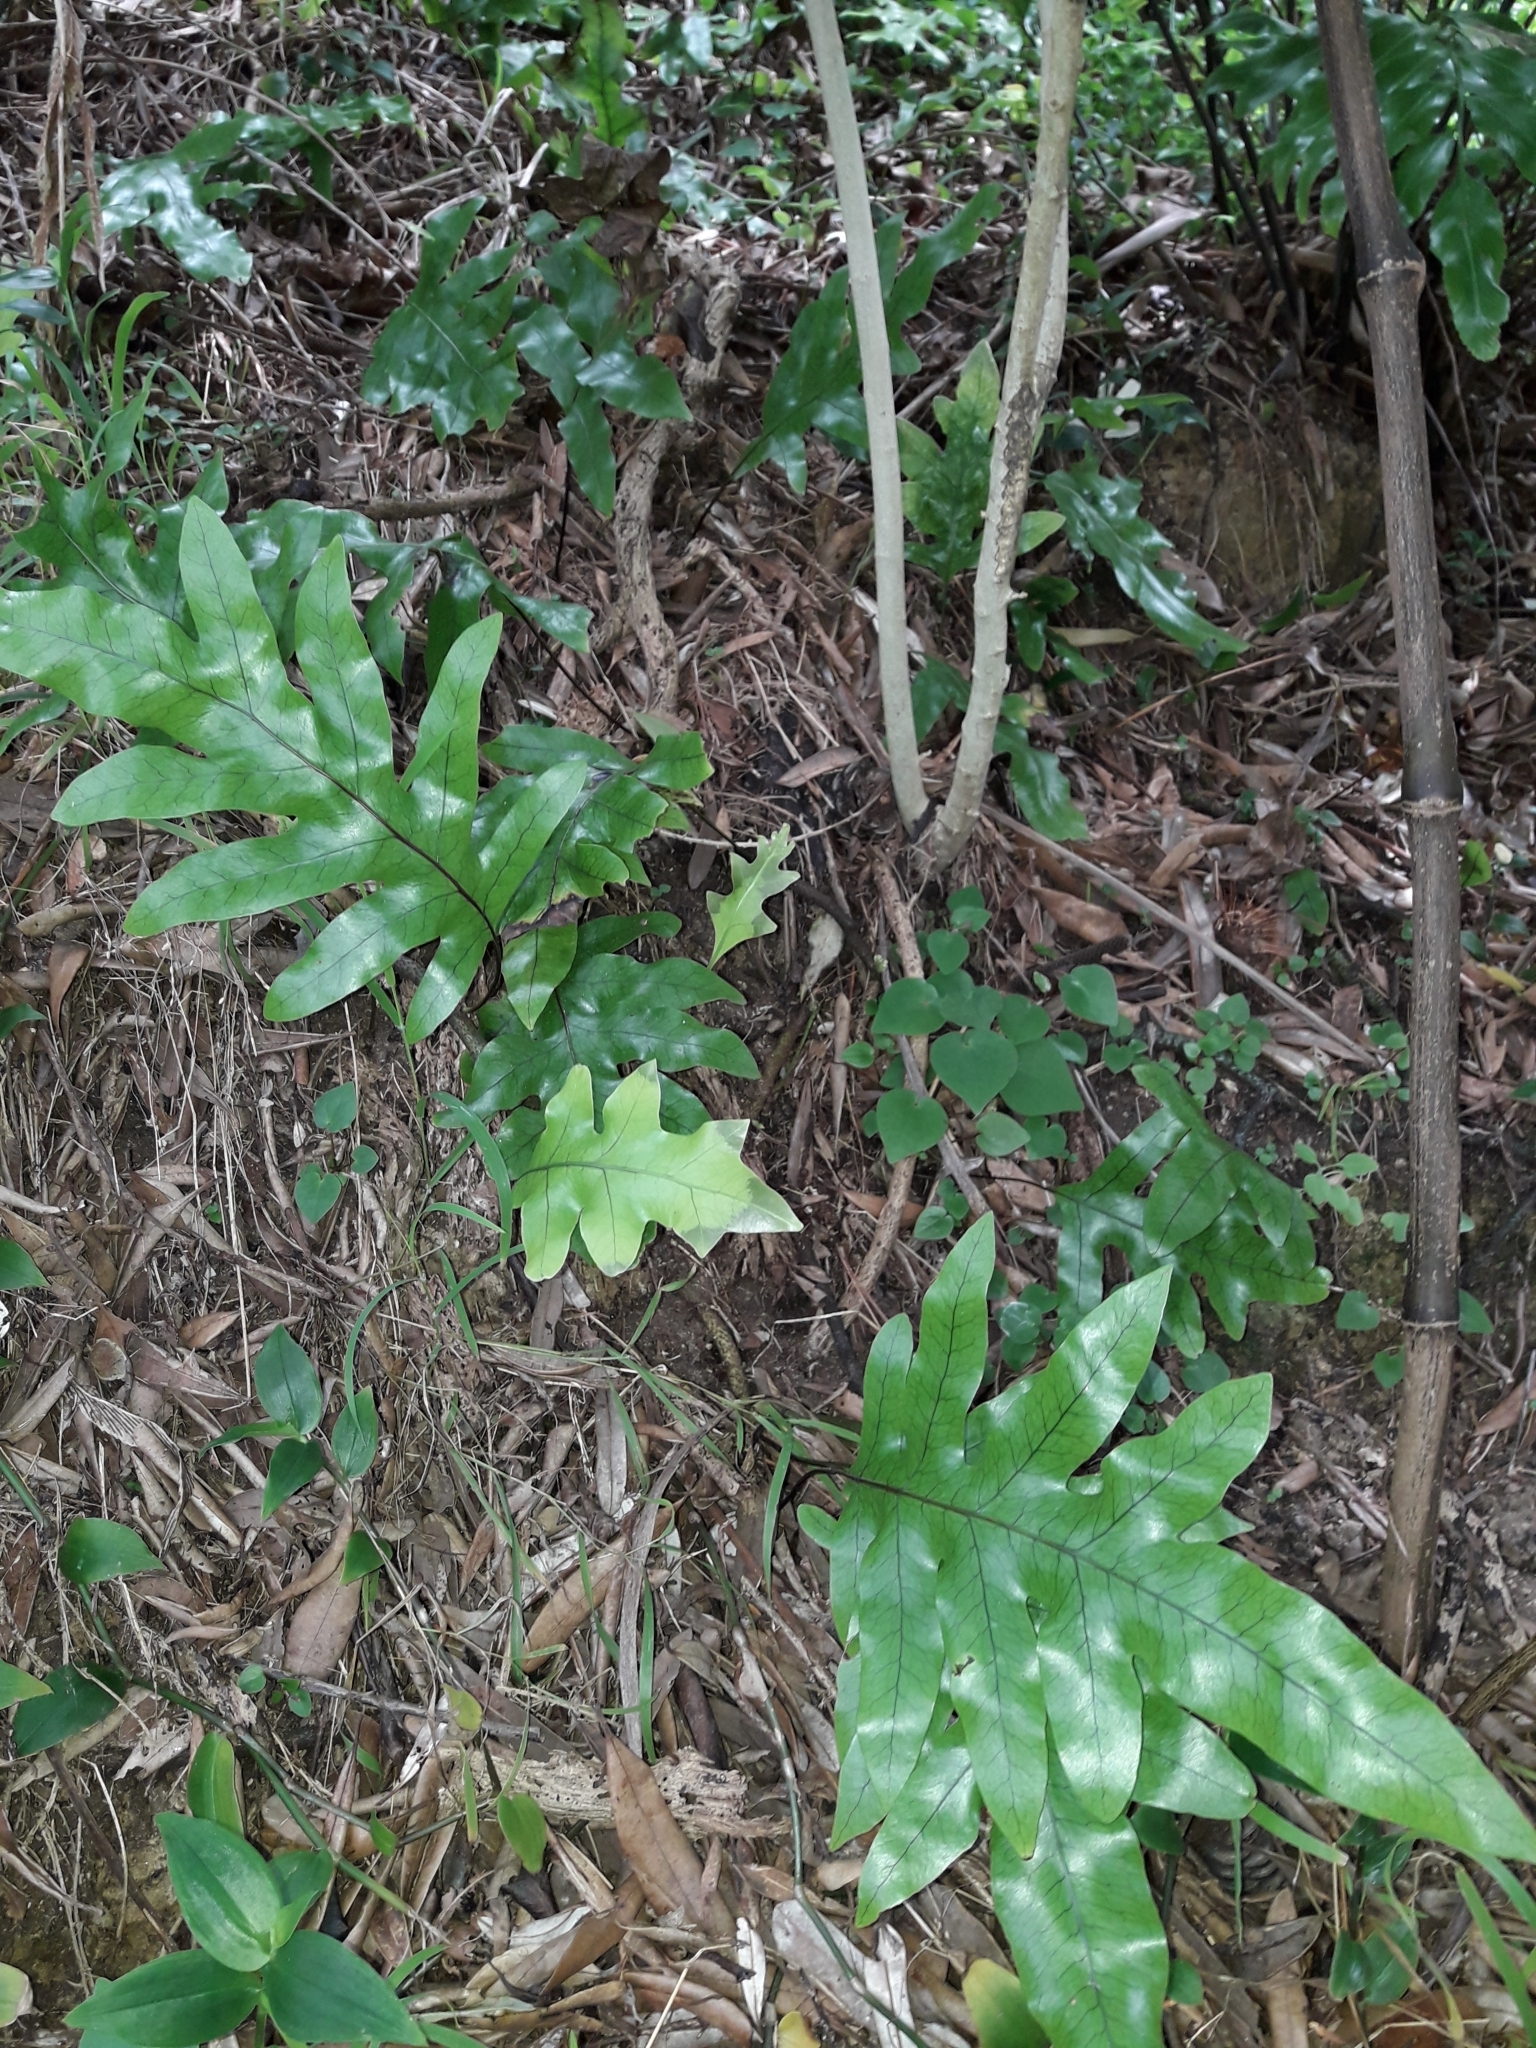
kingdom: Plantae
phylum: Tracheophyta
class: Polypodiopsida
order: Polypodiales
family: Polypodiaceae
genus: Lecanopteris
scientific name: Lecanopteris pustulata
